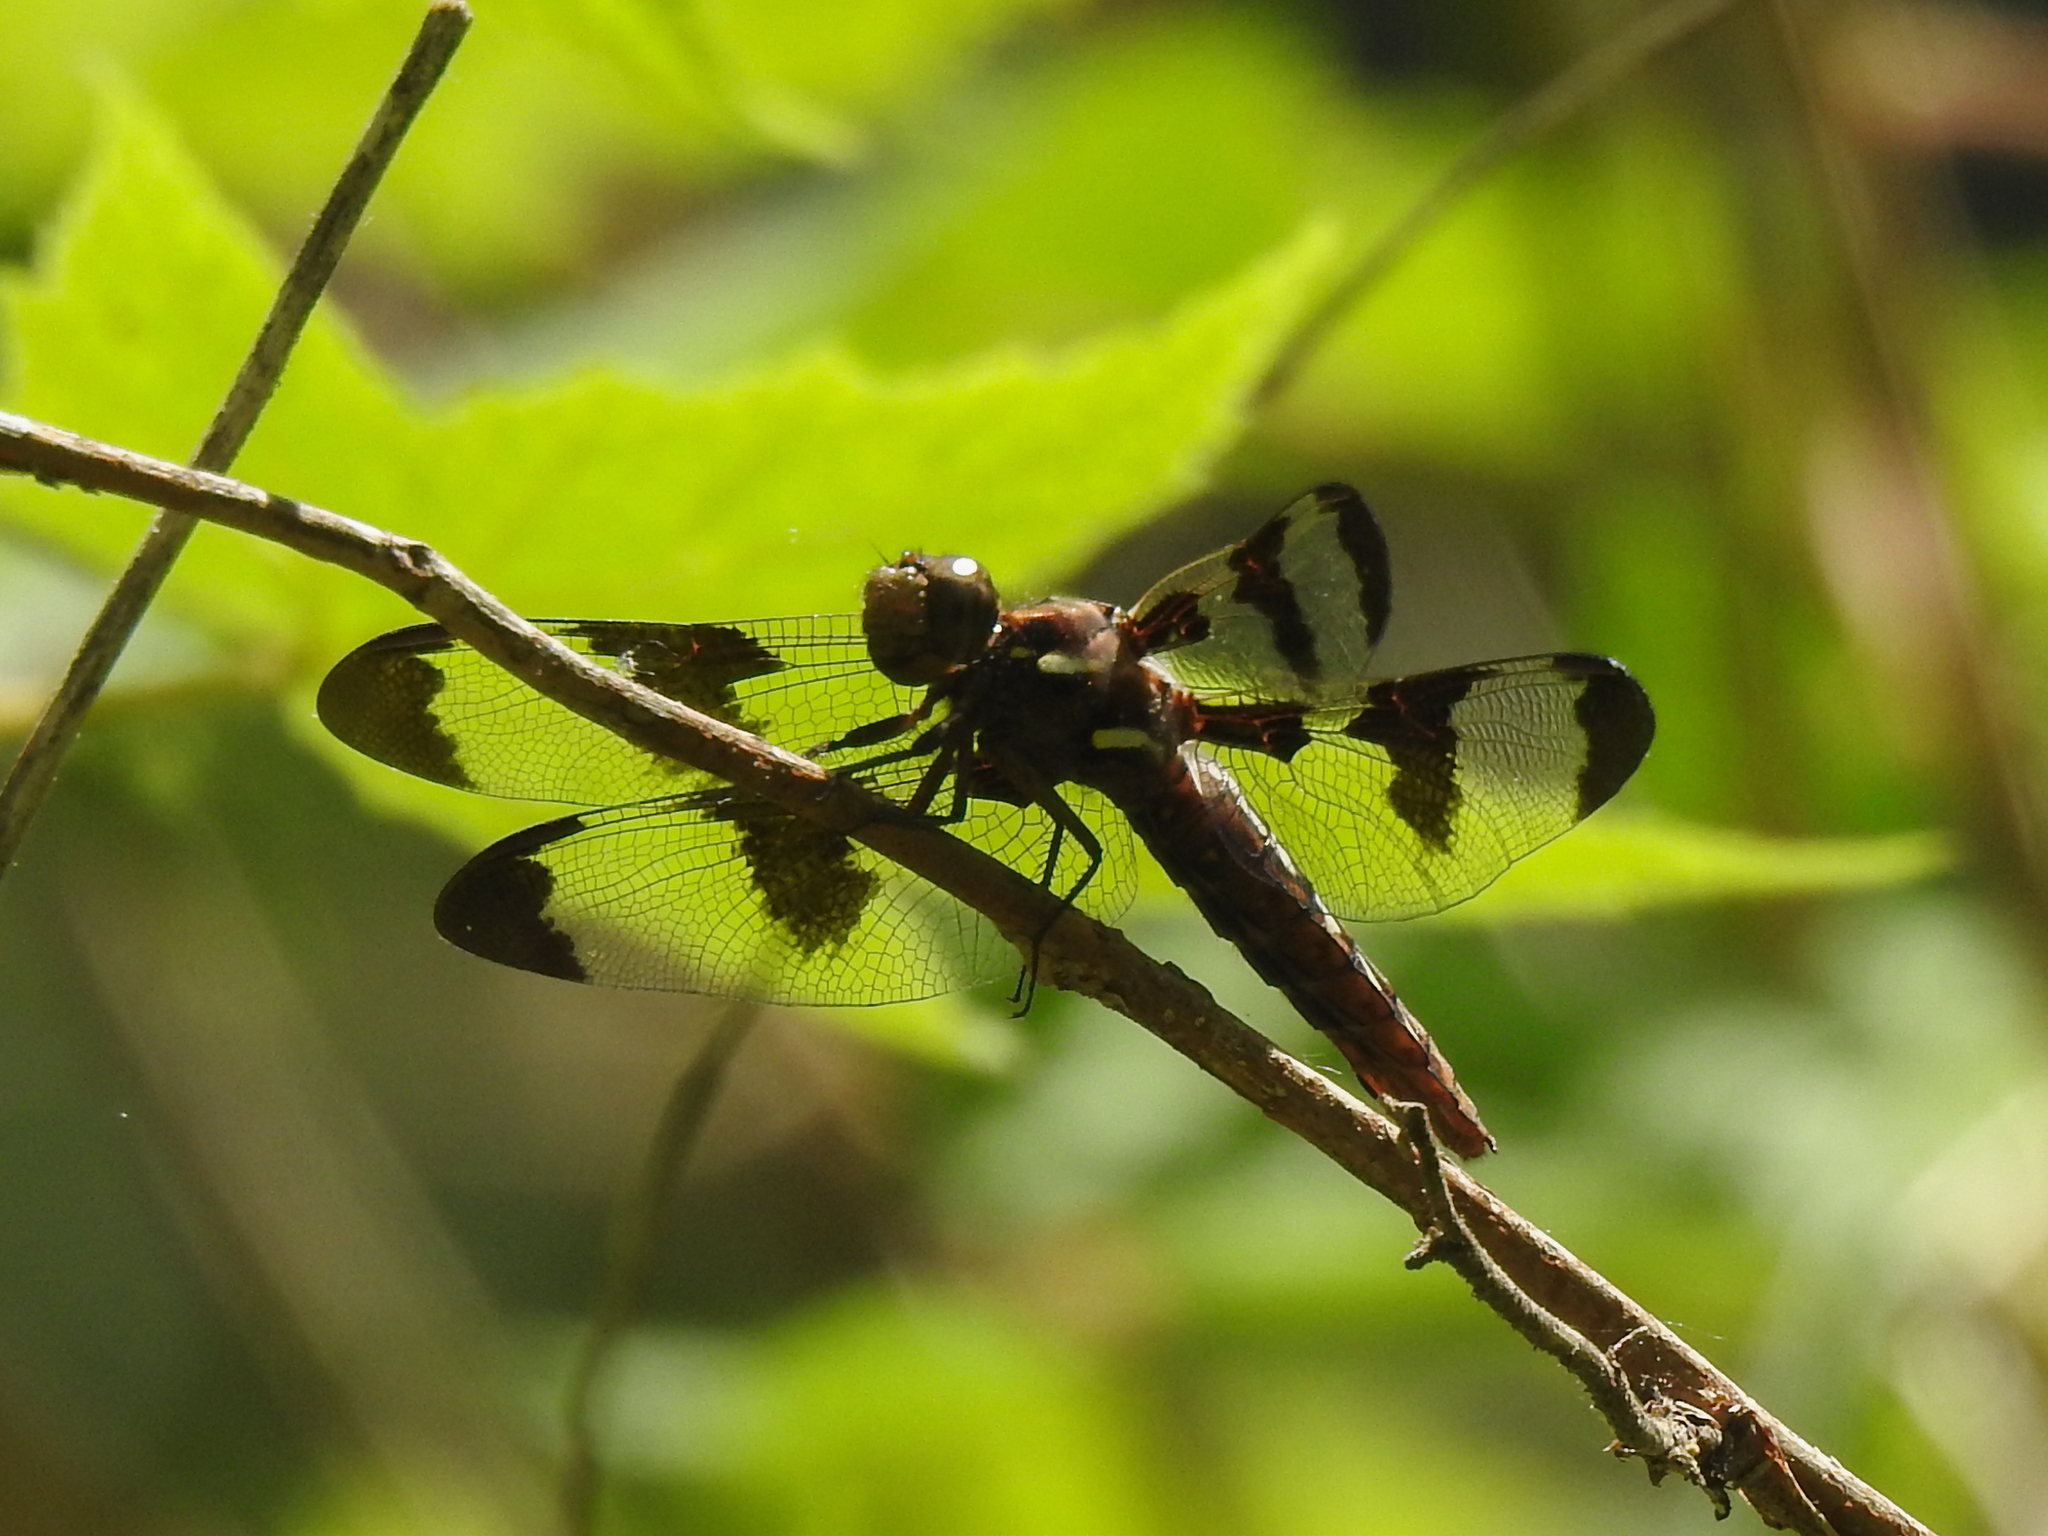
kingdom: Animalia
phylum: Arthropoda
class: Insecta
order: Odonata
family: Libellulidae
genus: Plathemis
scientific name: Plathemis lydia
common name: Common whitetail
